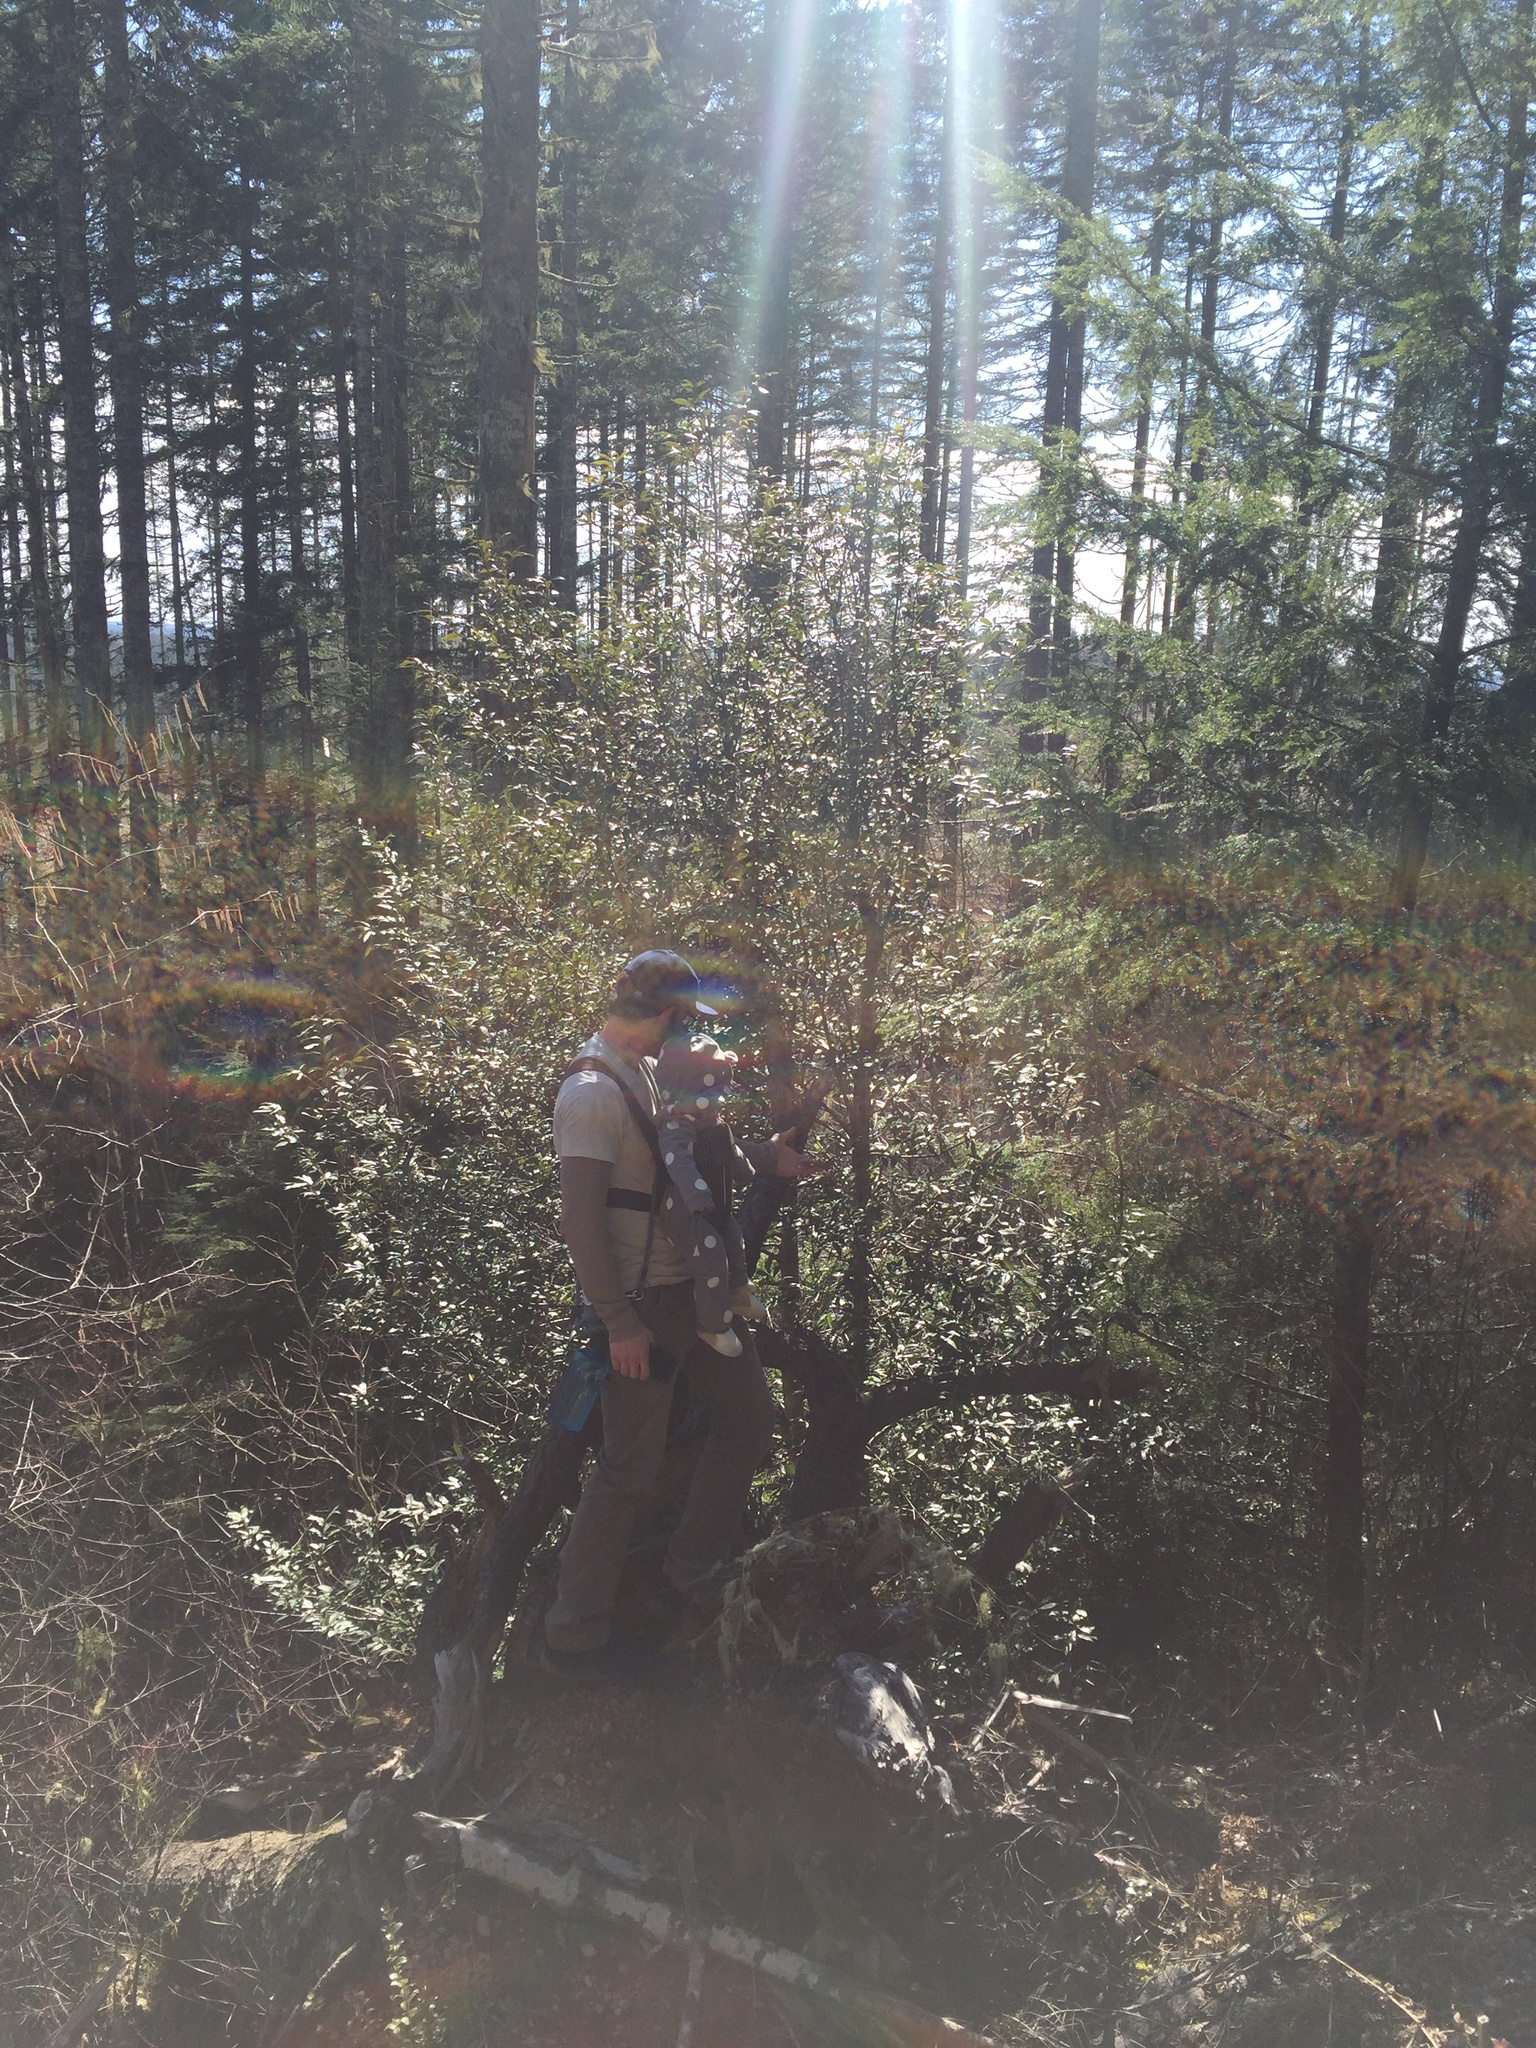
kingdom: Plantae
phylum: Tracheophyta
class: Magnoliopsida
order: Fagales
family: Fagaceae
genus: Chrysolepis
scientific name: Chrysolepis chrysophylla
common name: Giant chinquapin
